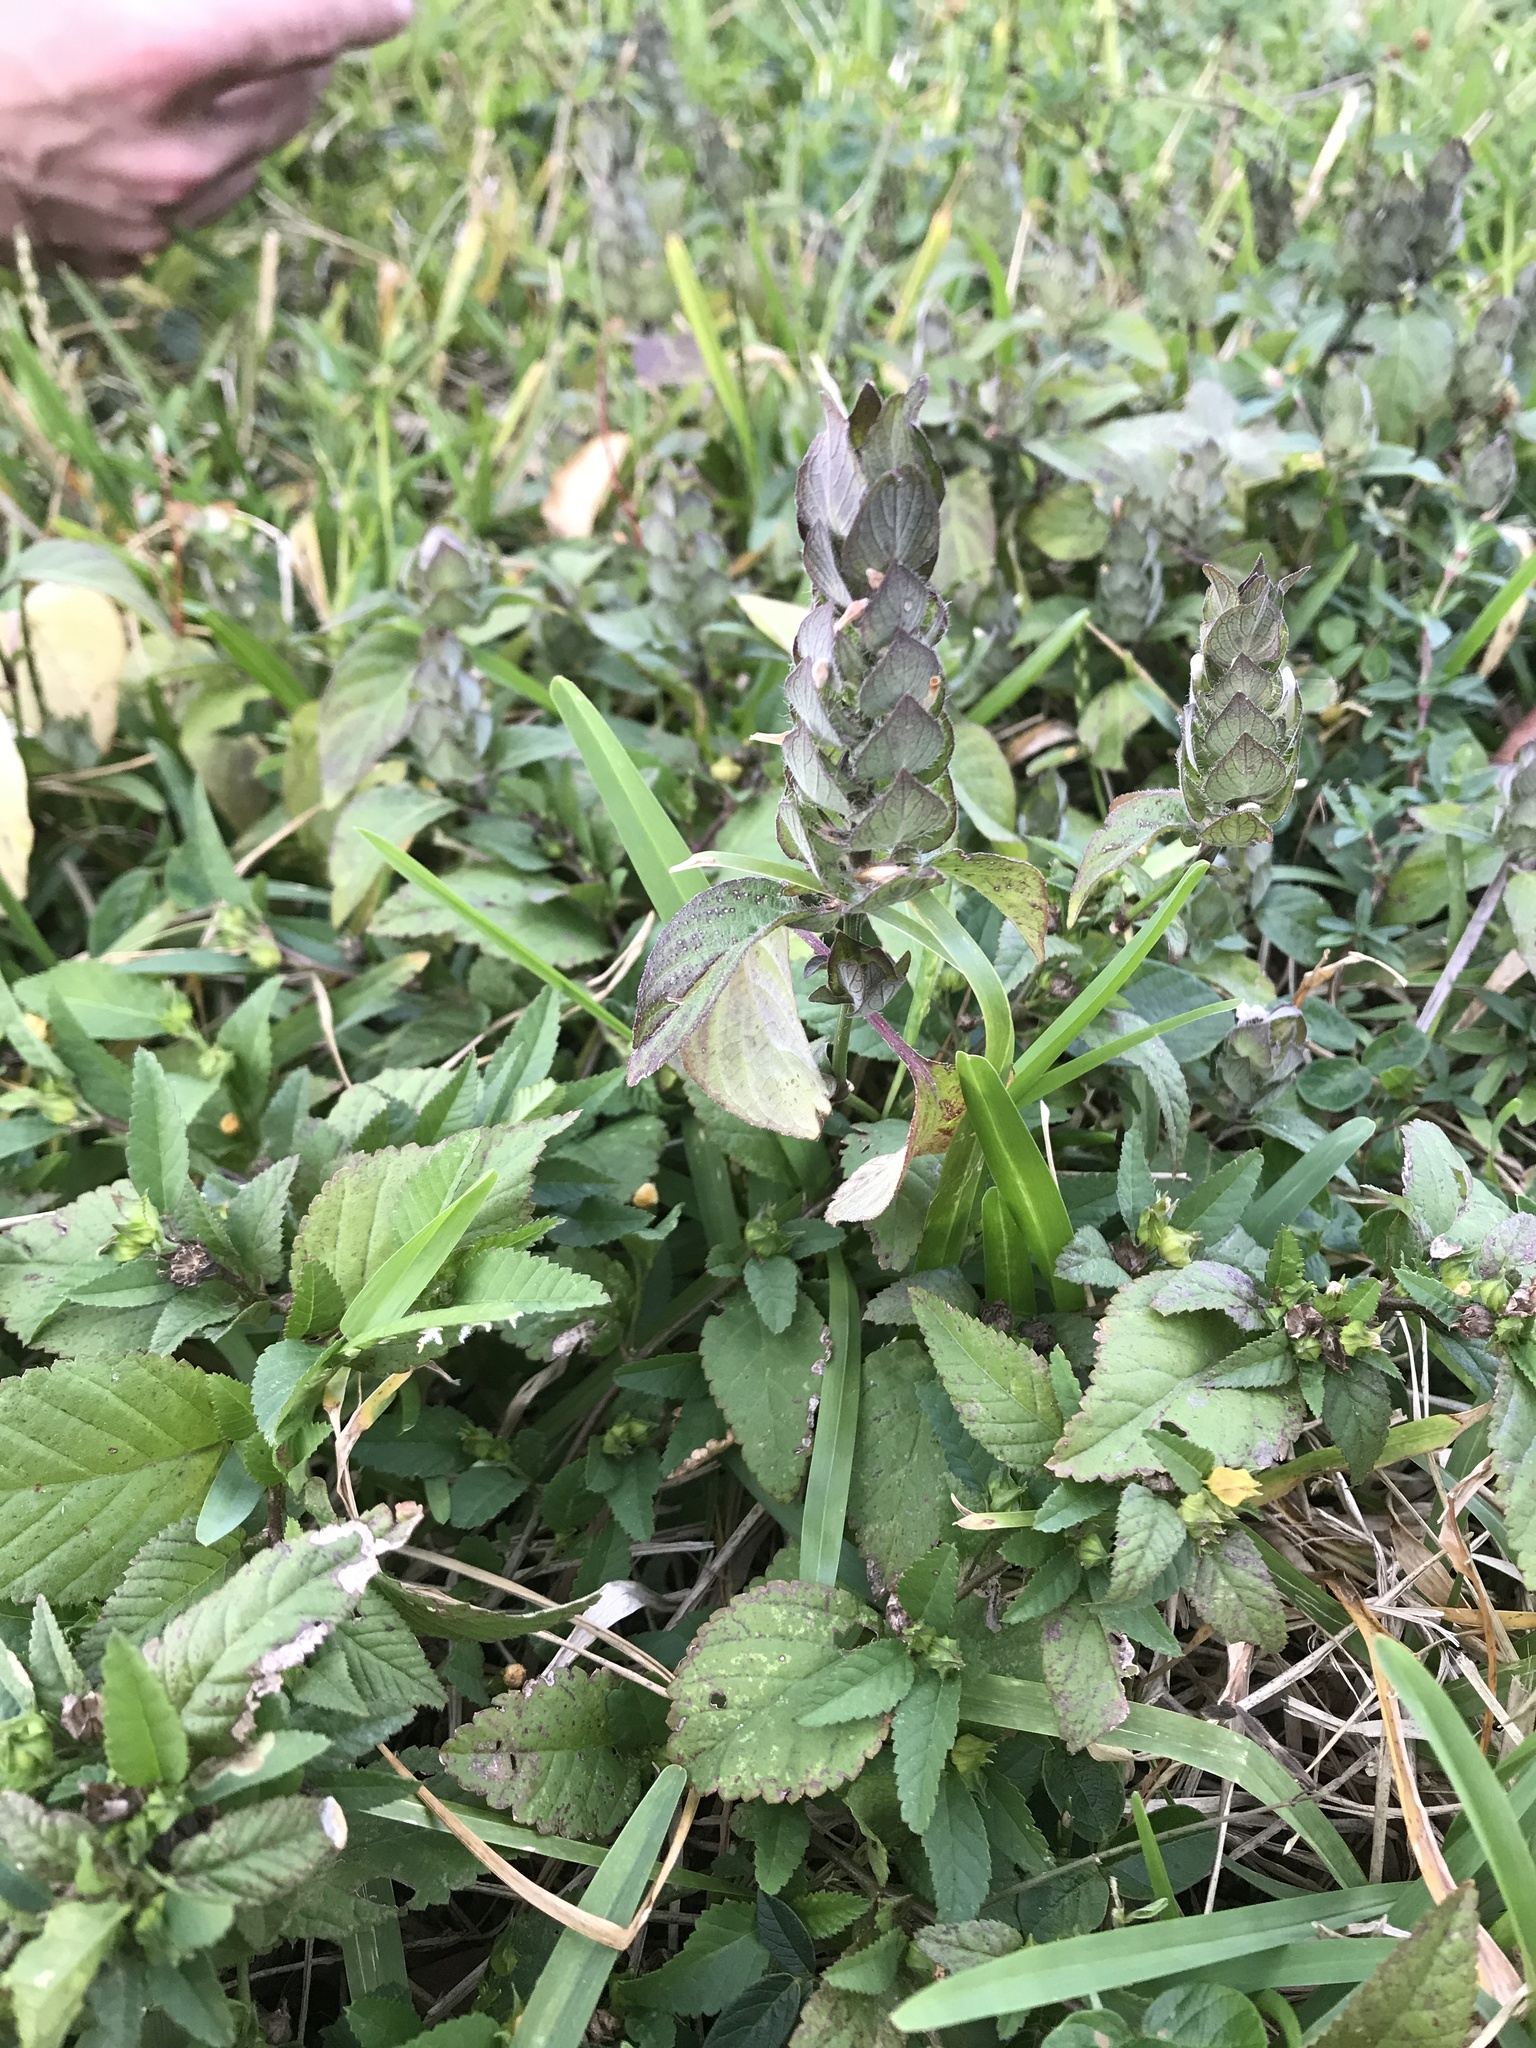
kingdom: Plantae
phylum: Tracheophyta
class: Magnoliopsida
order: Lamiales
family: Acanthaceae
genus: Ruellia
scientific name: Ruellia blechum
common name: Browne's blechum
